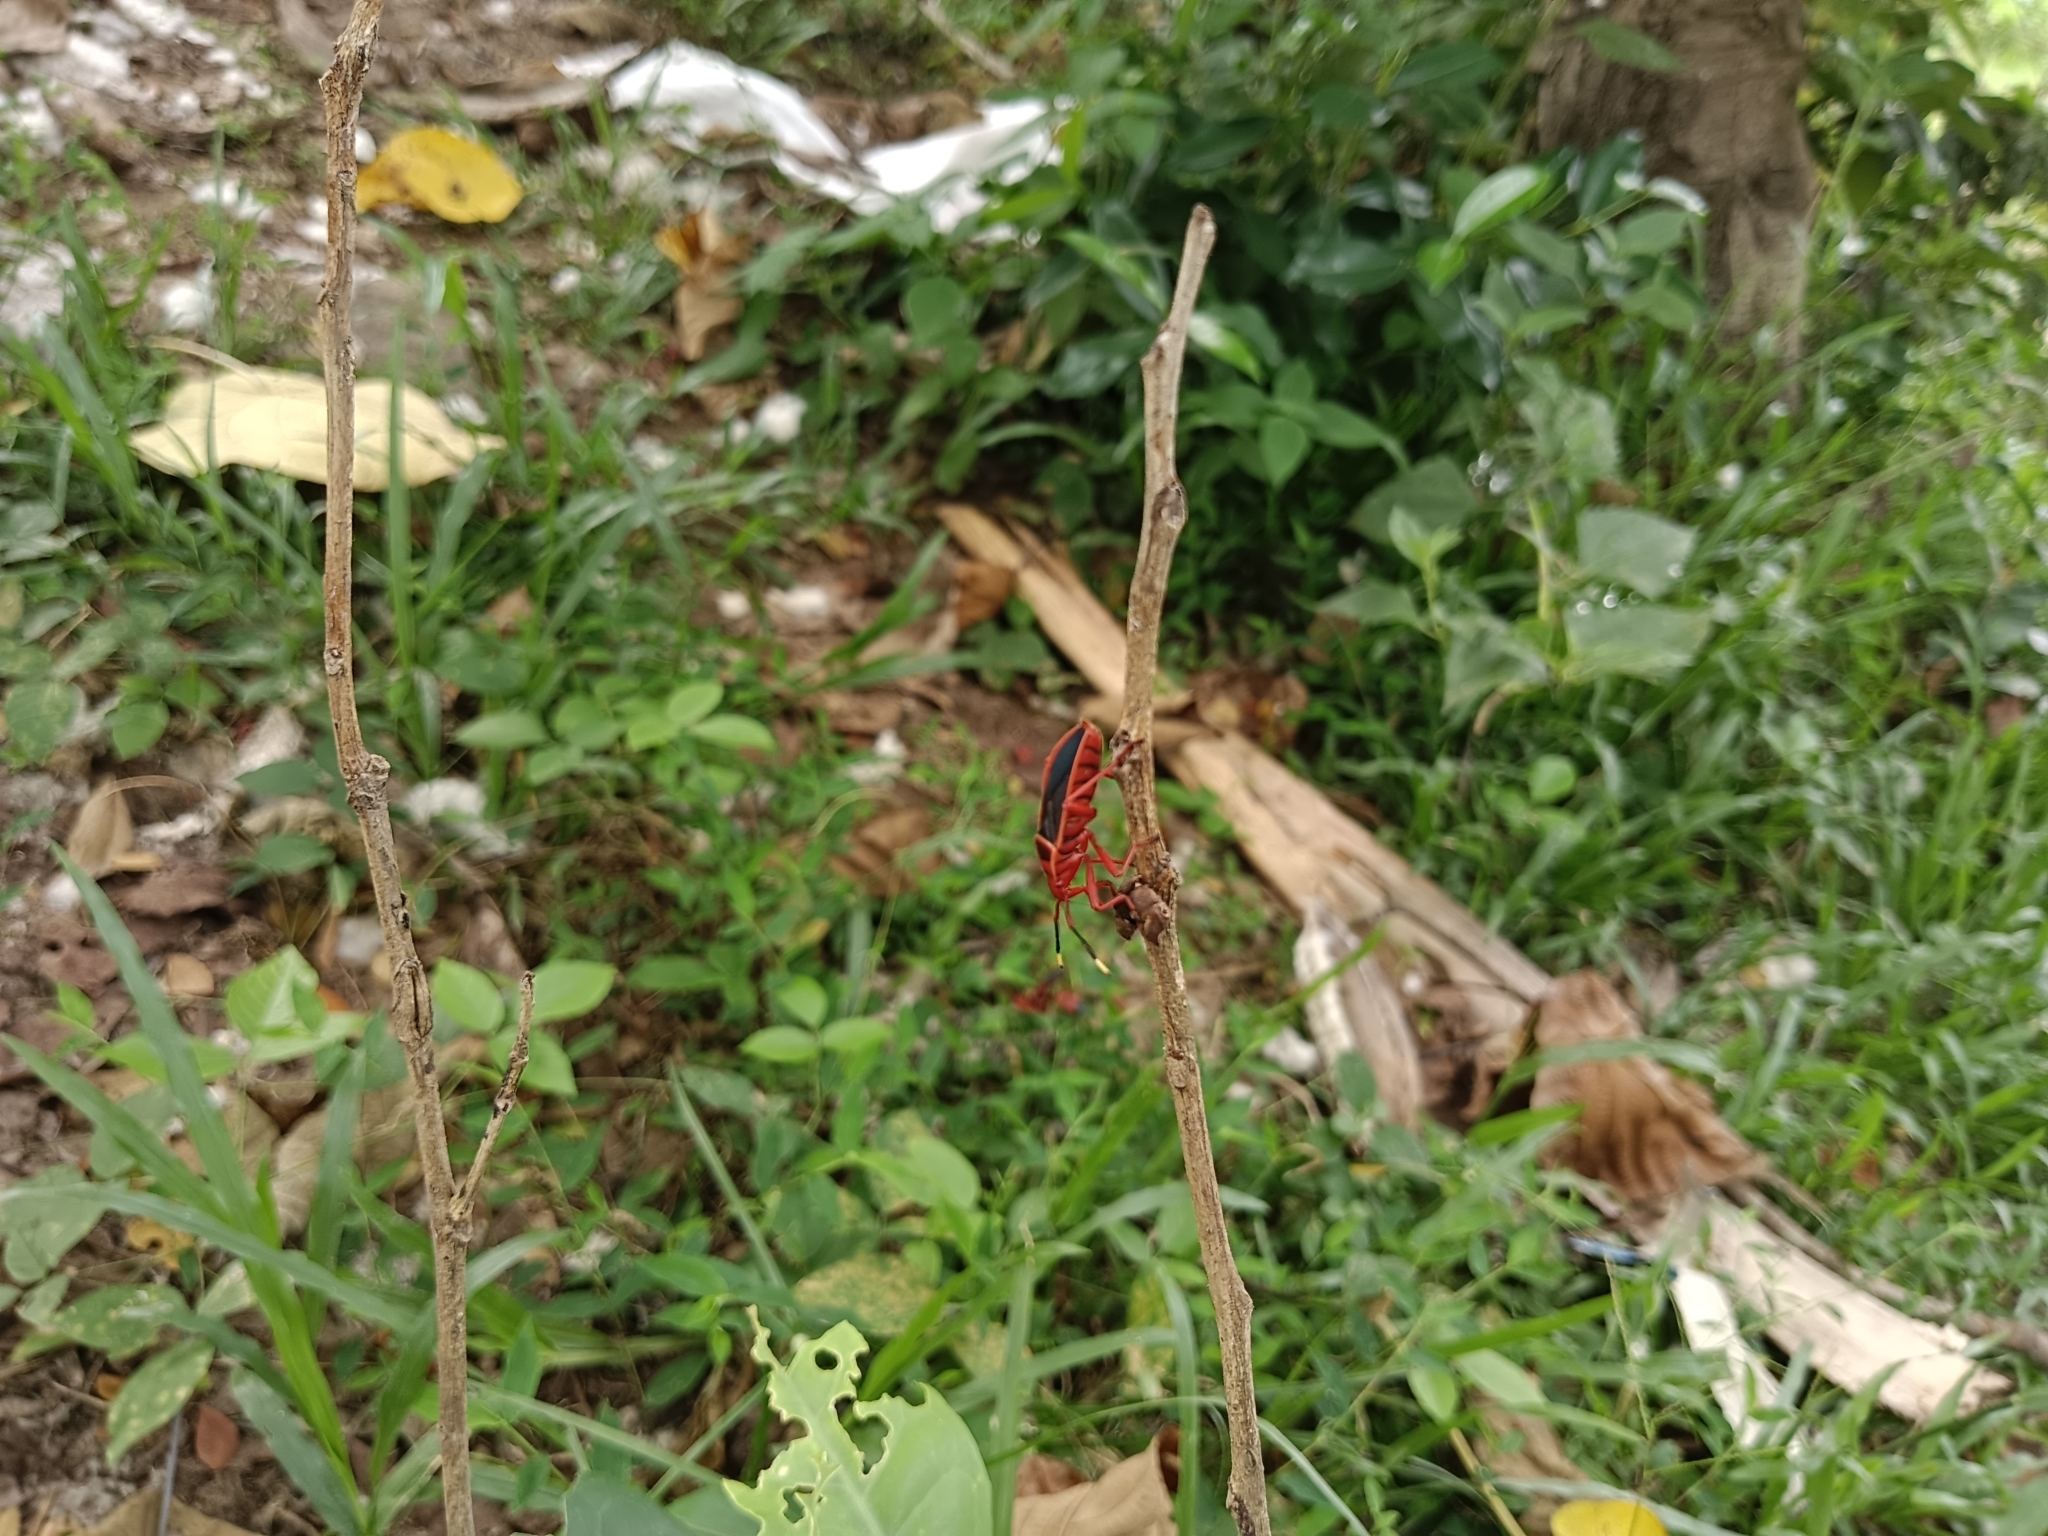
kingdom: Animalia
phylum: Arthropoda
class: Insecta
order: Hemiptera
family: Pyrrhocoridae
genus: Probergrothius
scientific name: Probergrothius
